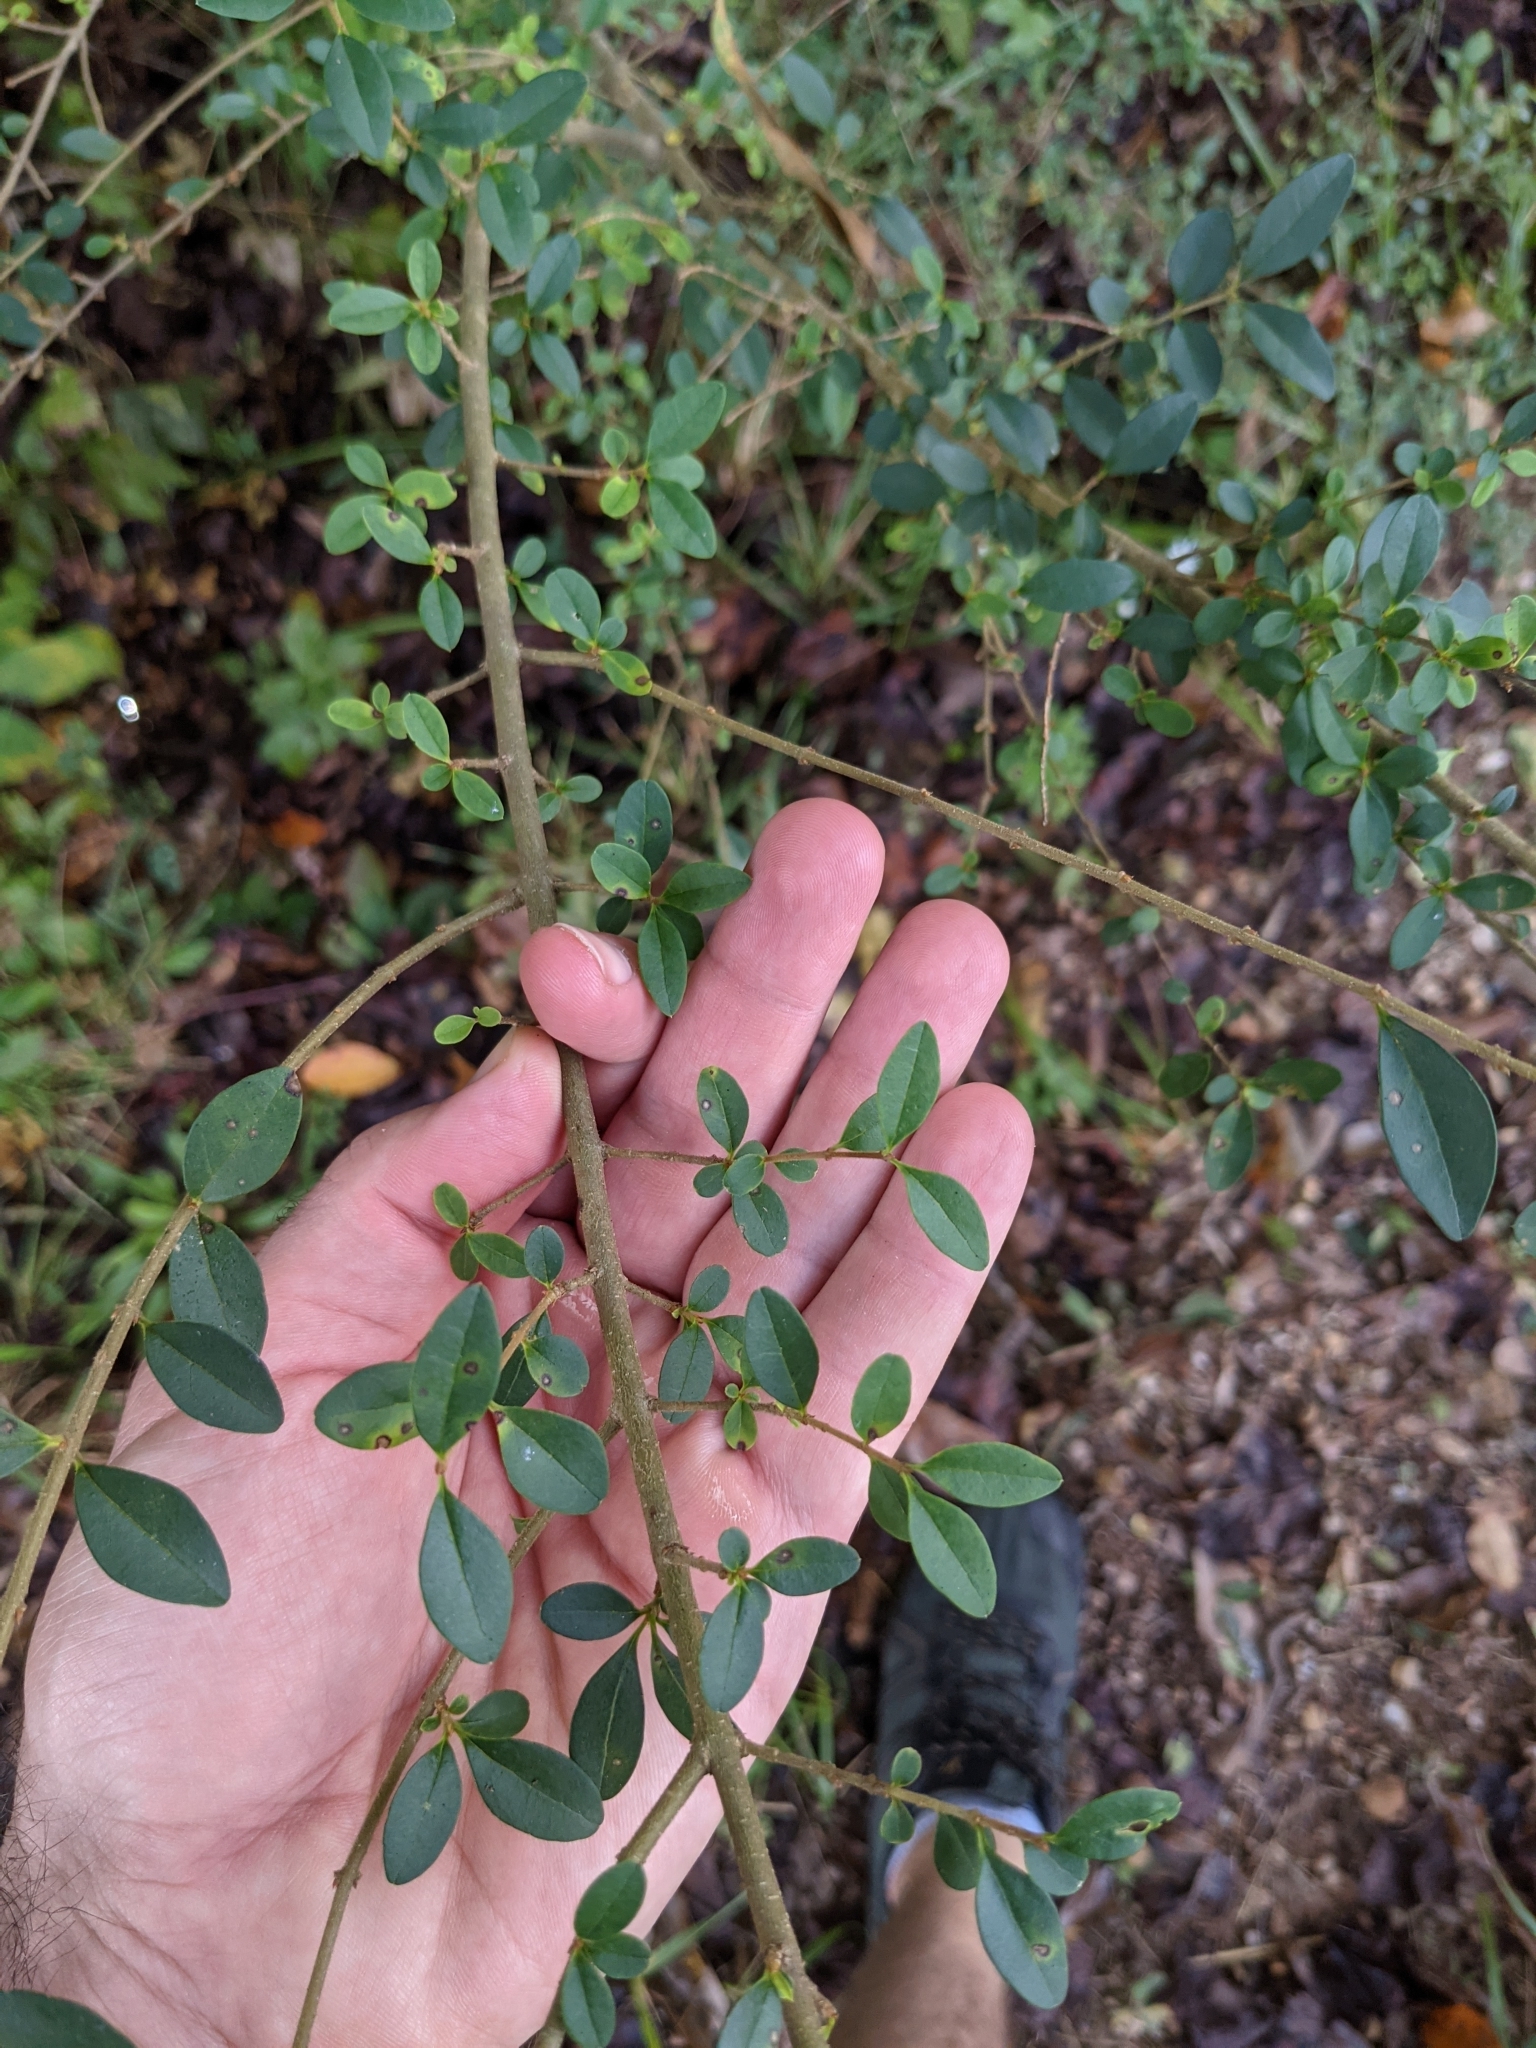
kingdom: Plantae
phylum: Tracheophyta
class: Magnoliopsida
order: Lamiales
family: Oleaceae
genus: Ligustrum
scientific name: Ligustrum sinense
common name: Chinese privet
